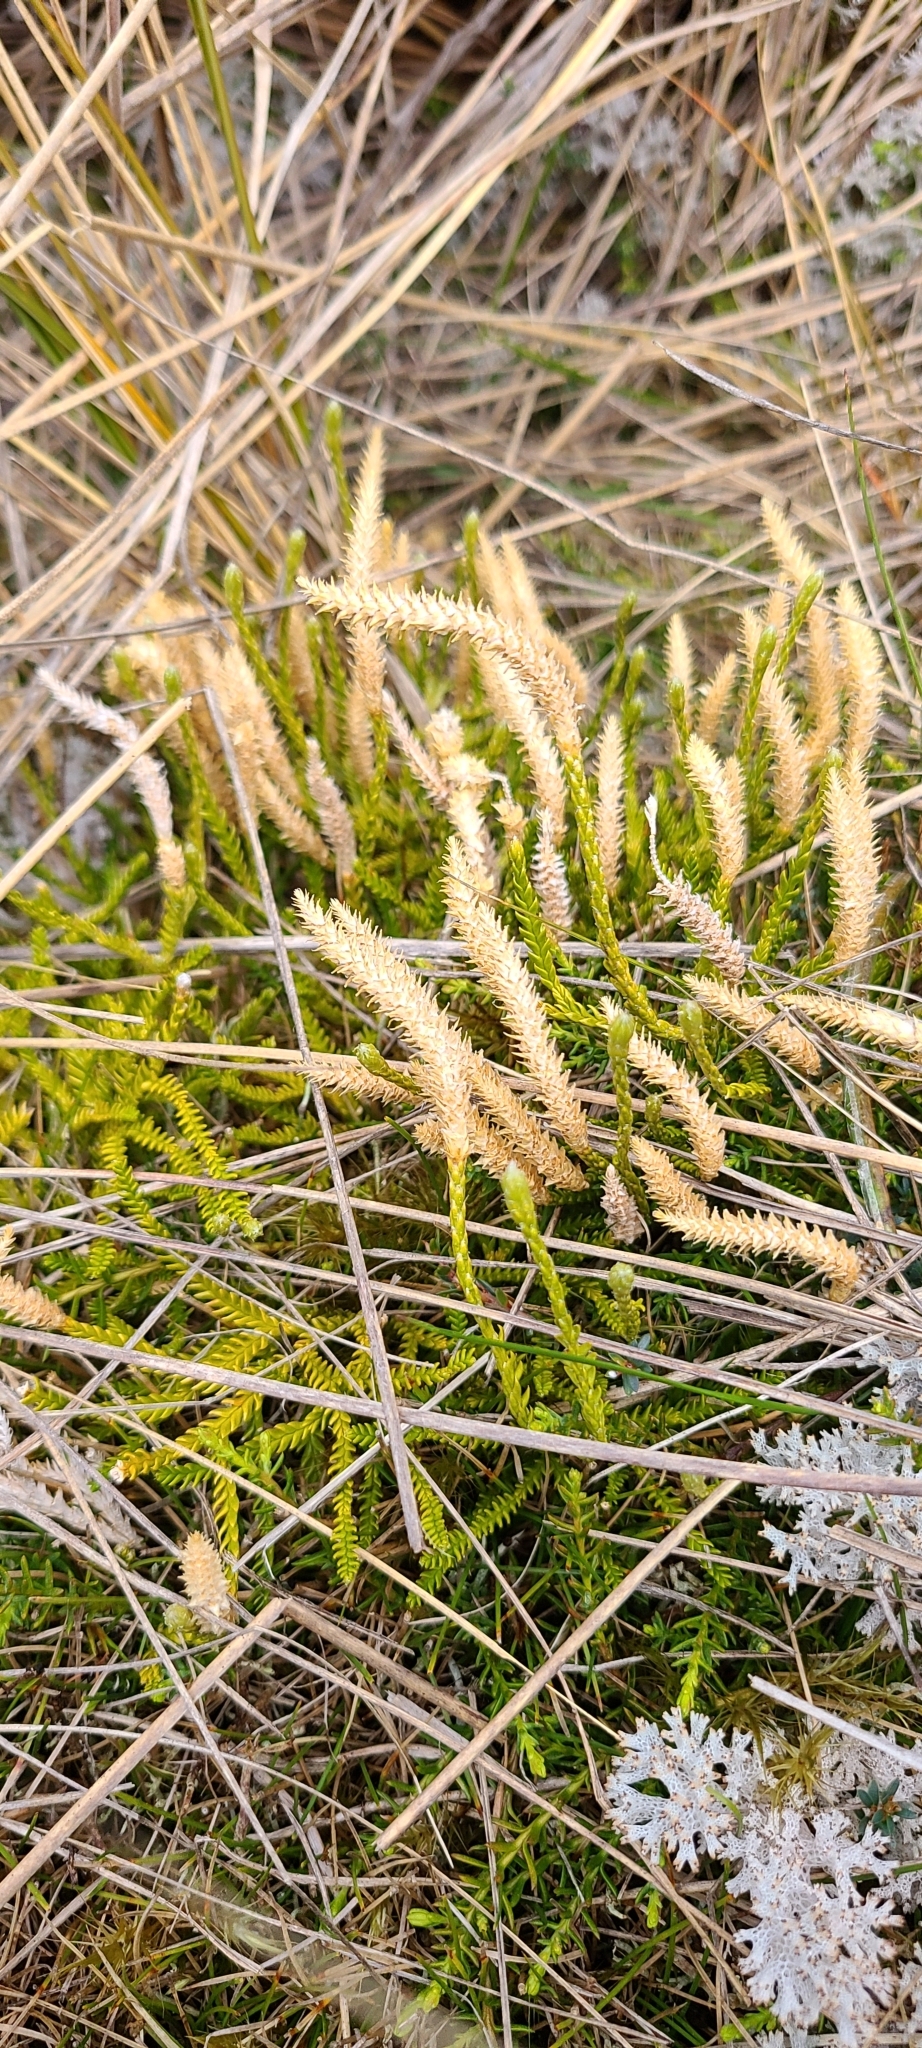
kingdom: Plantae
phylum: Tracheophyta
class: Lycopodiopsida
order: Lycopodiales
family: Lycopodiaceae
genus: Diphasium
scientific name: Diphasium scariosum
